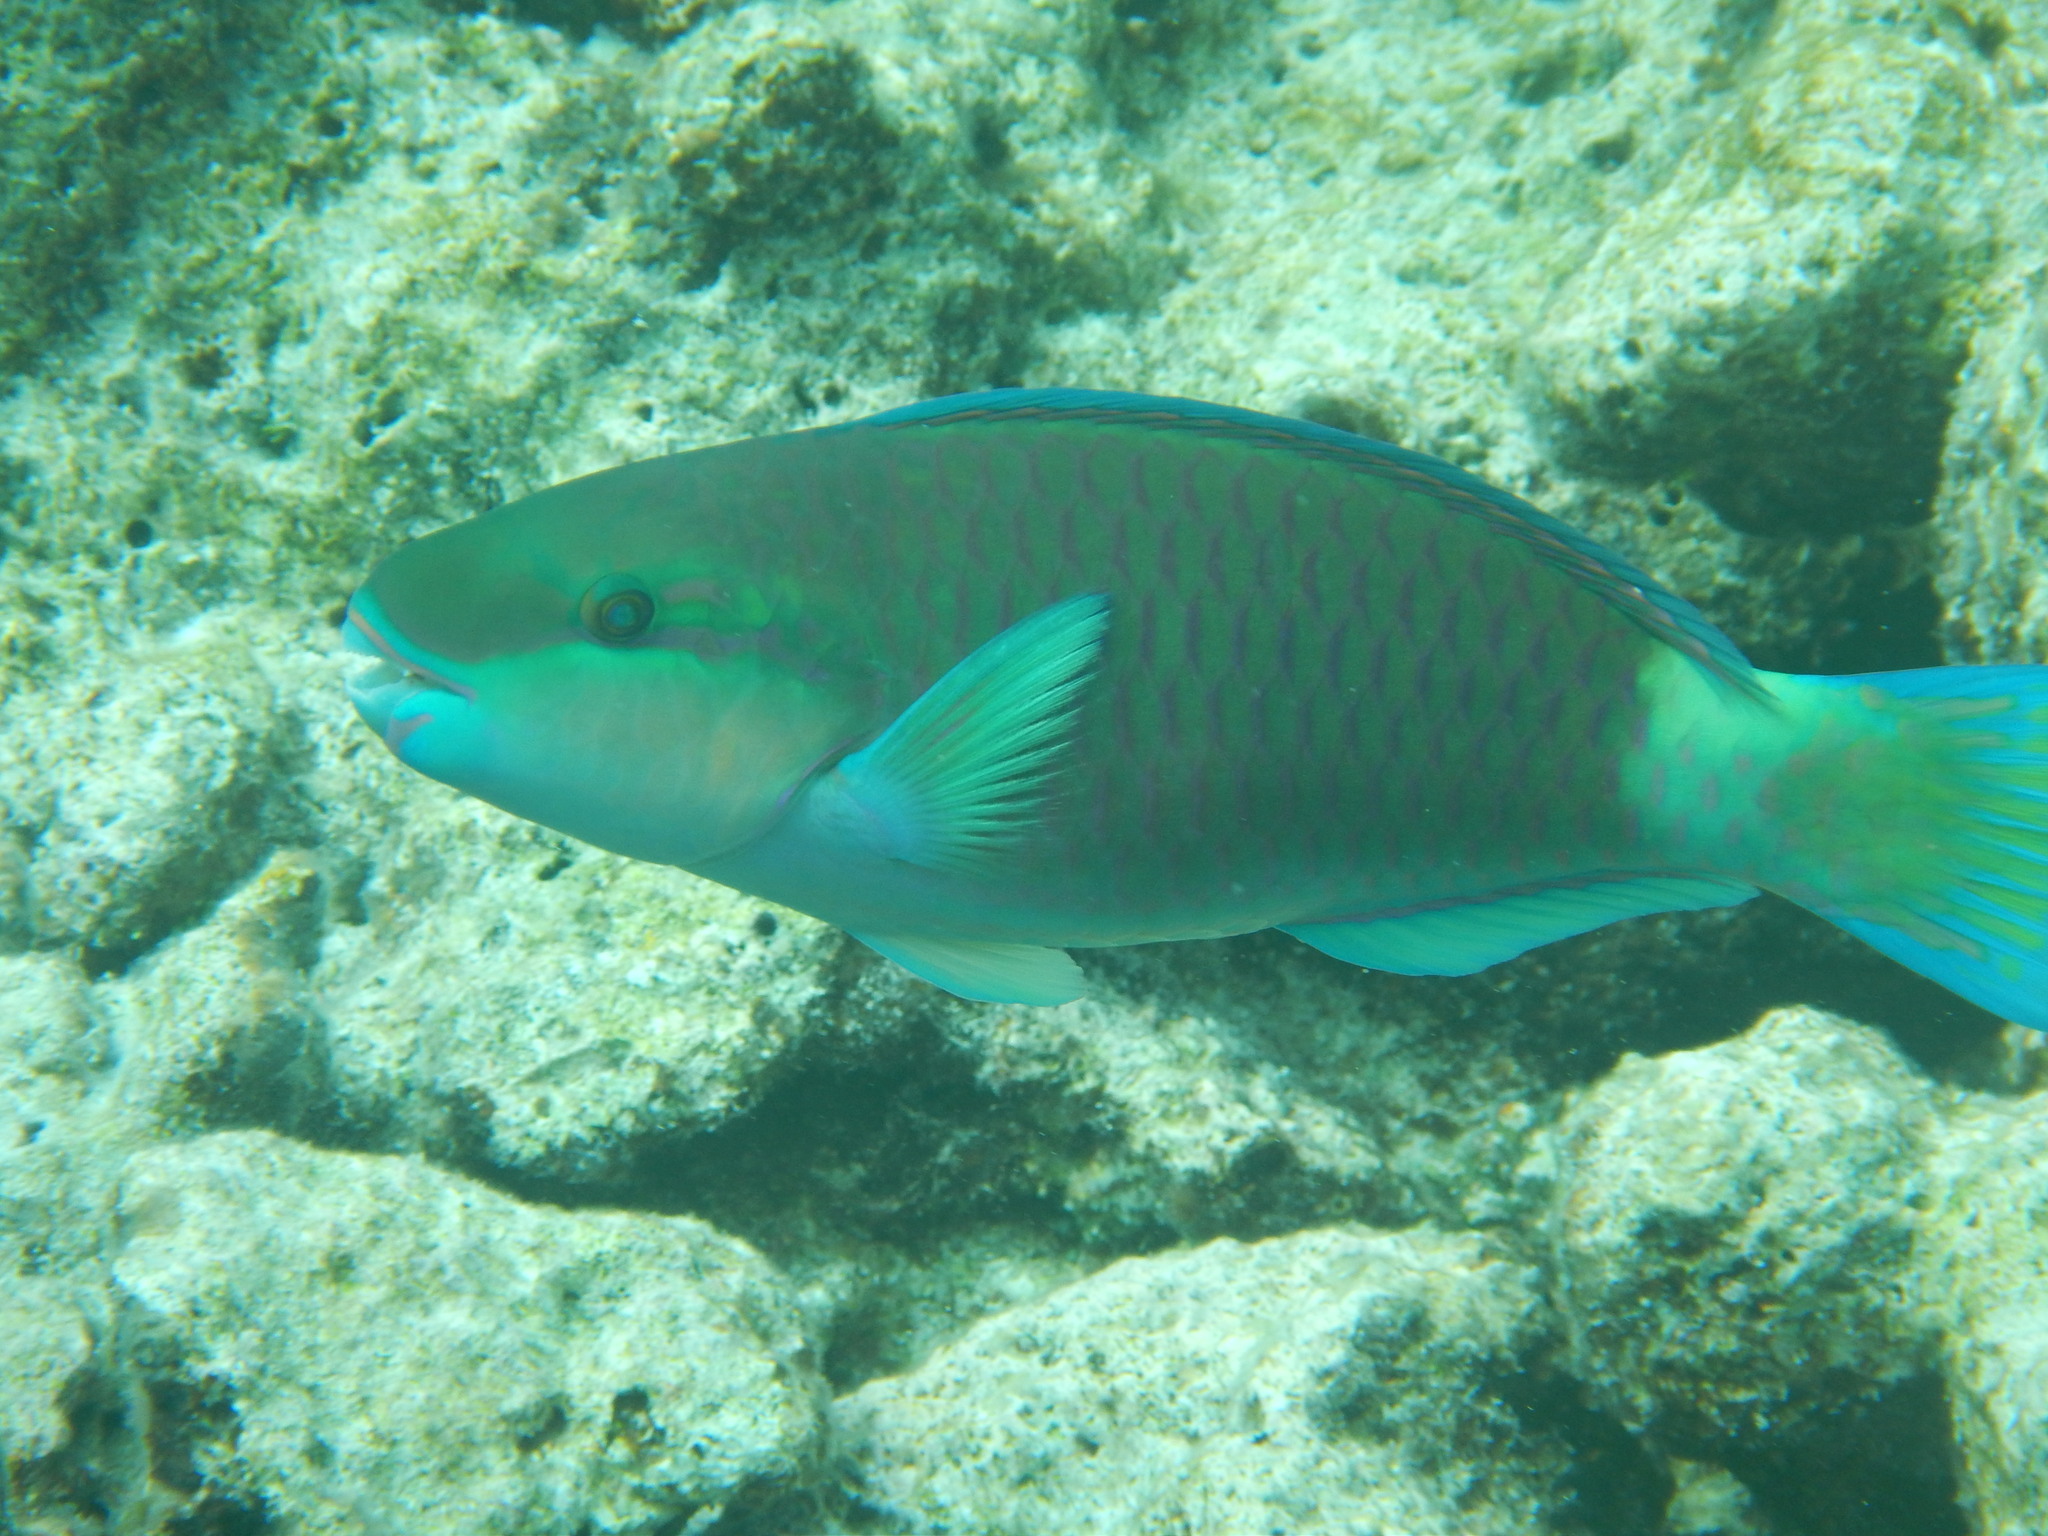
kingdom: Animalia
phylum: Chordata
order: Perciformes
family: Scaridae
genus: Chlorurus
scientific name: Chlorurus spilurus
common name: Bullethead parrotfish
